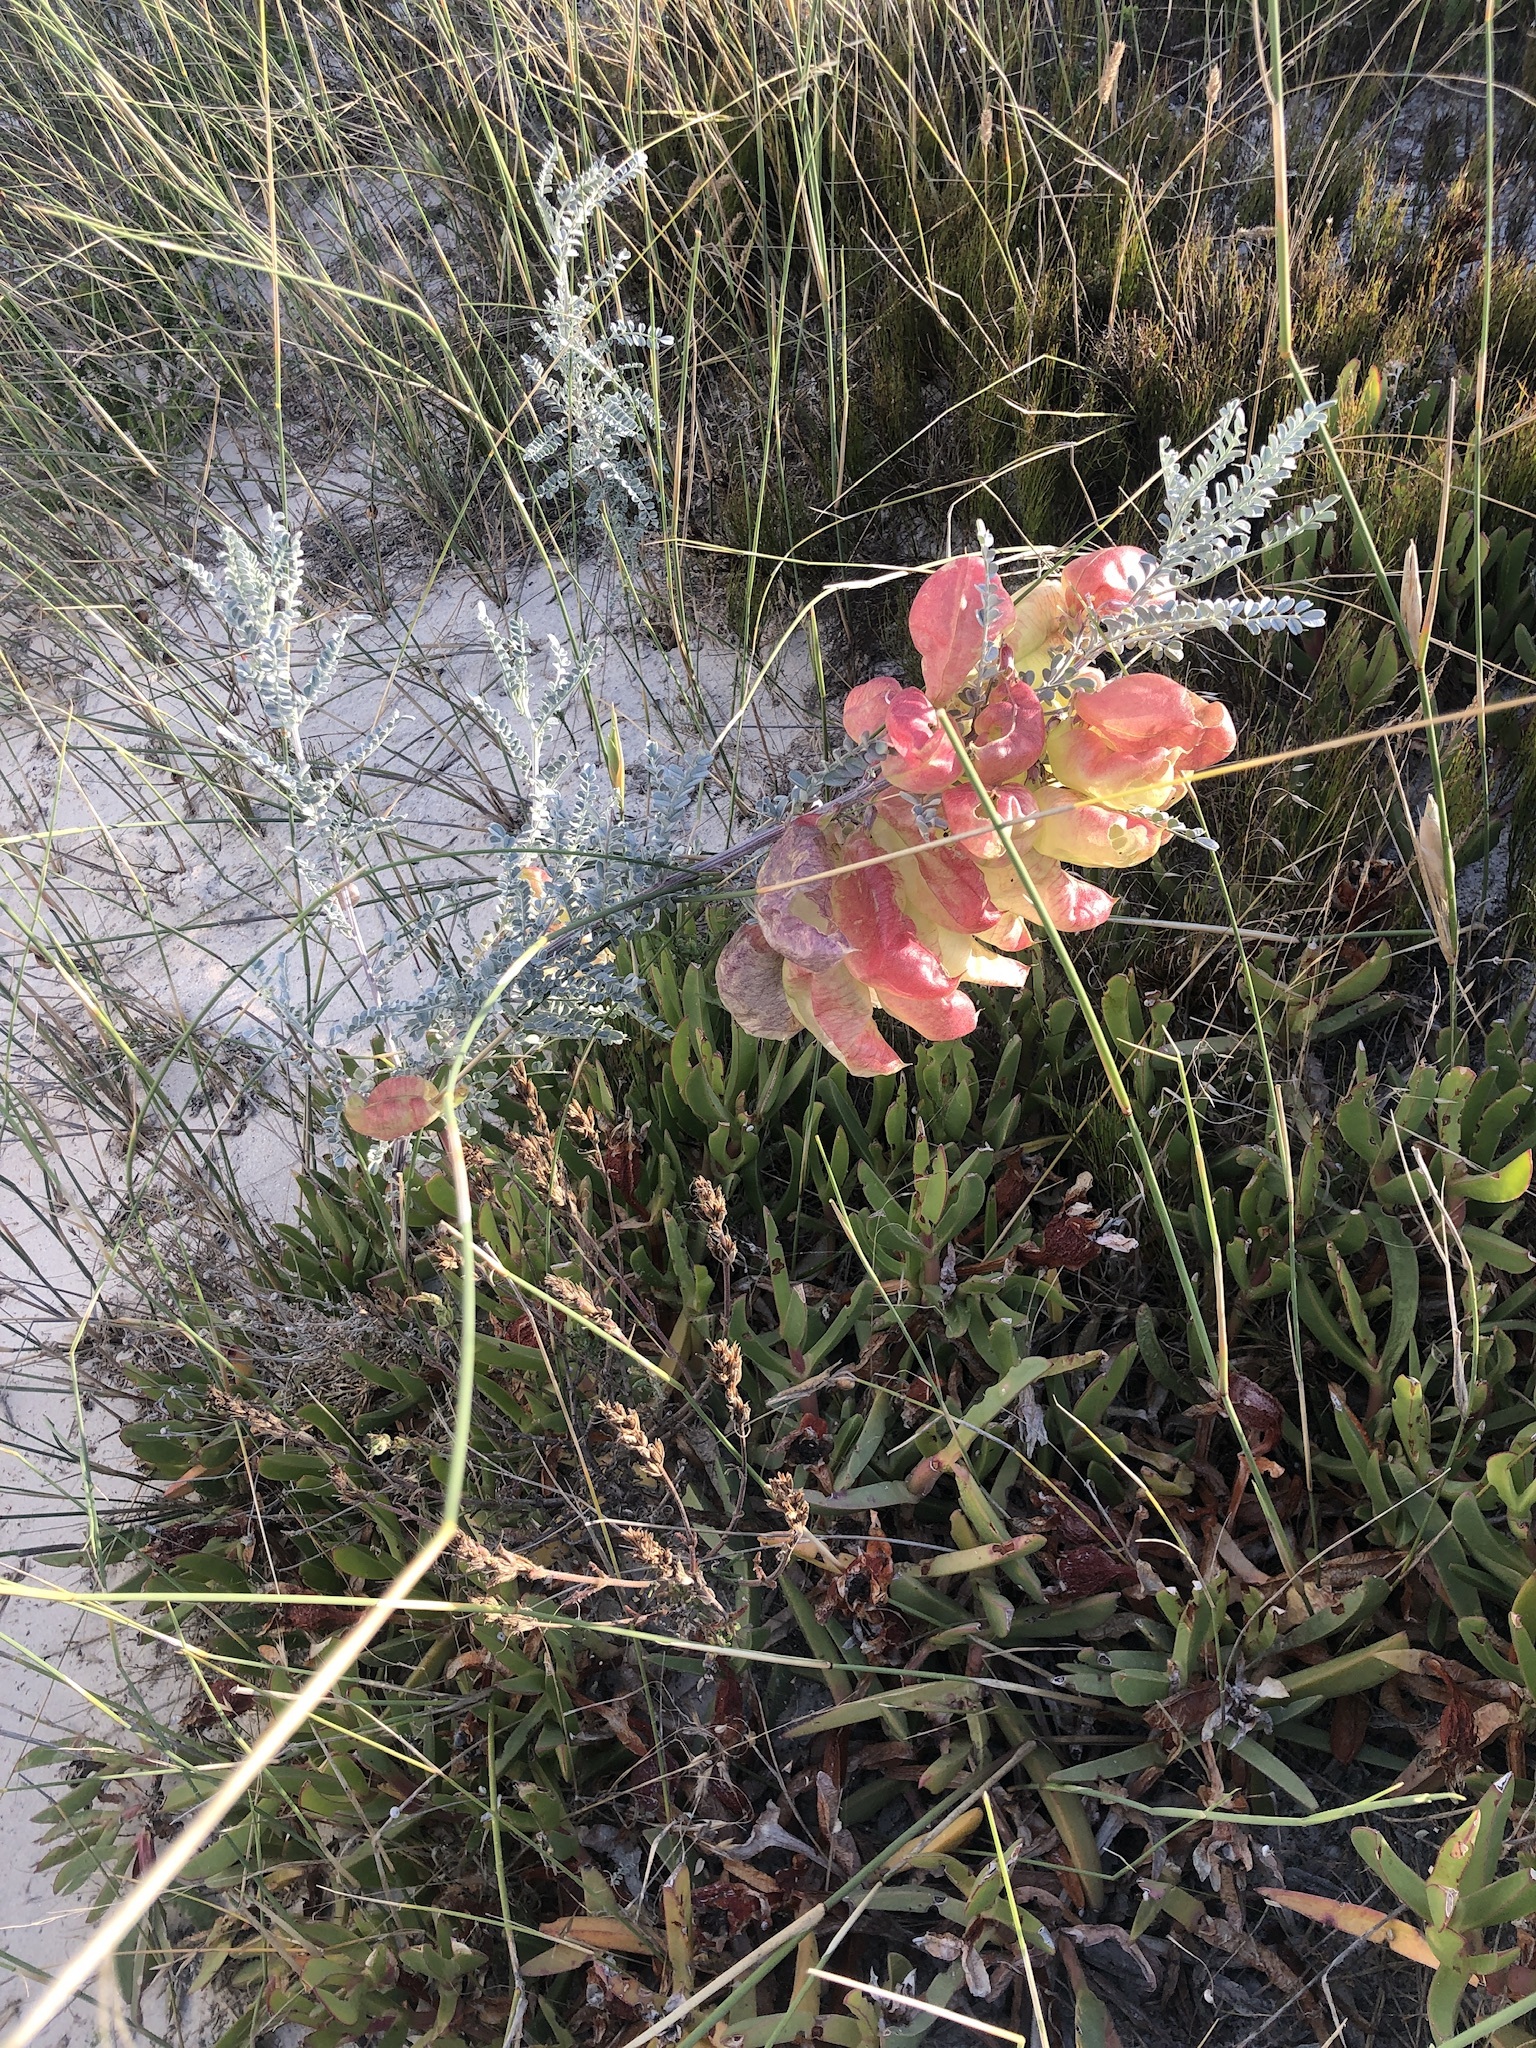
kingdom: Plantae
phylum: Tracheophyta
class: Magnoliopsida
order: Fabales
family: Fabaceae
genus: Lessertia
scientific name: Lessertia canescens
